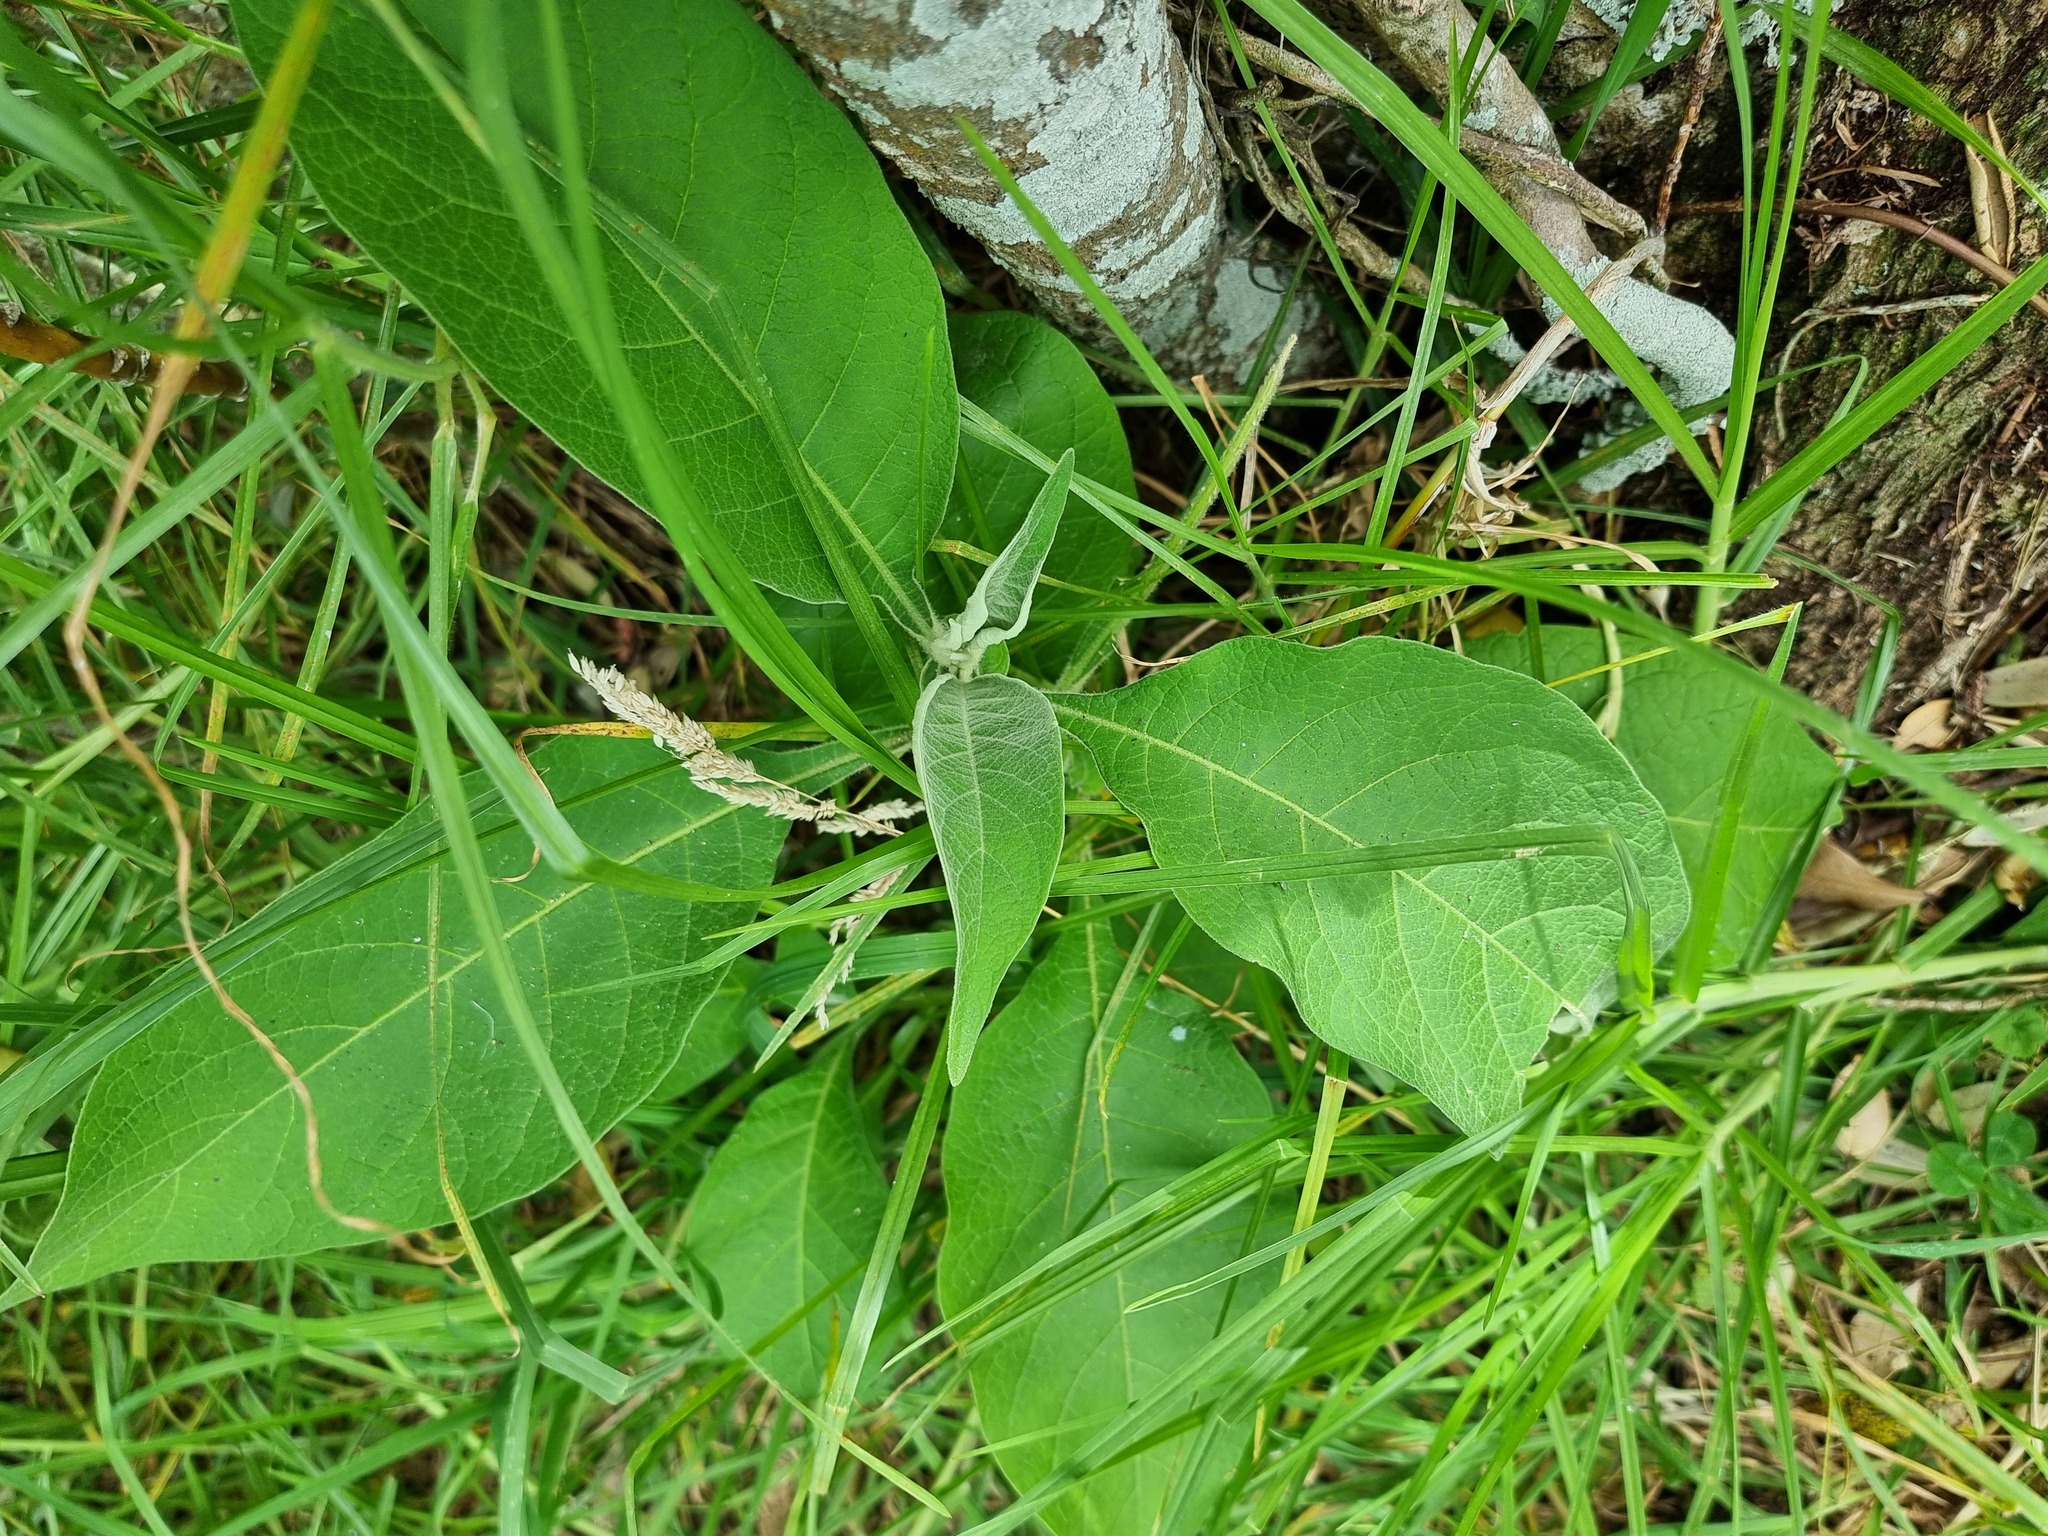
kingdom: Plantae
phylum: Tracheophyta
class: Magnoliopsida
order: Solanales
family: Solanaceae
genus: Solanum
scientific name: Solanum mauritianum
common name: Earleaf nightshade
